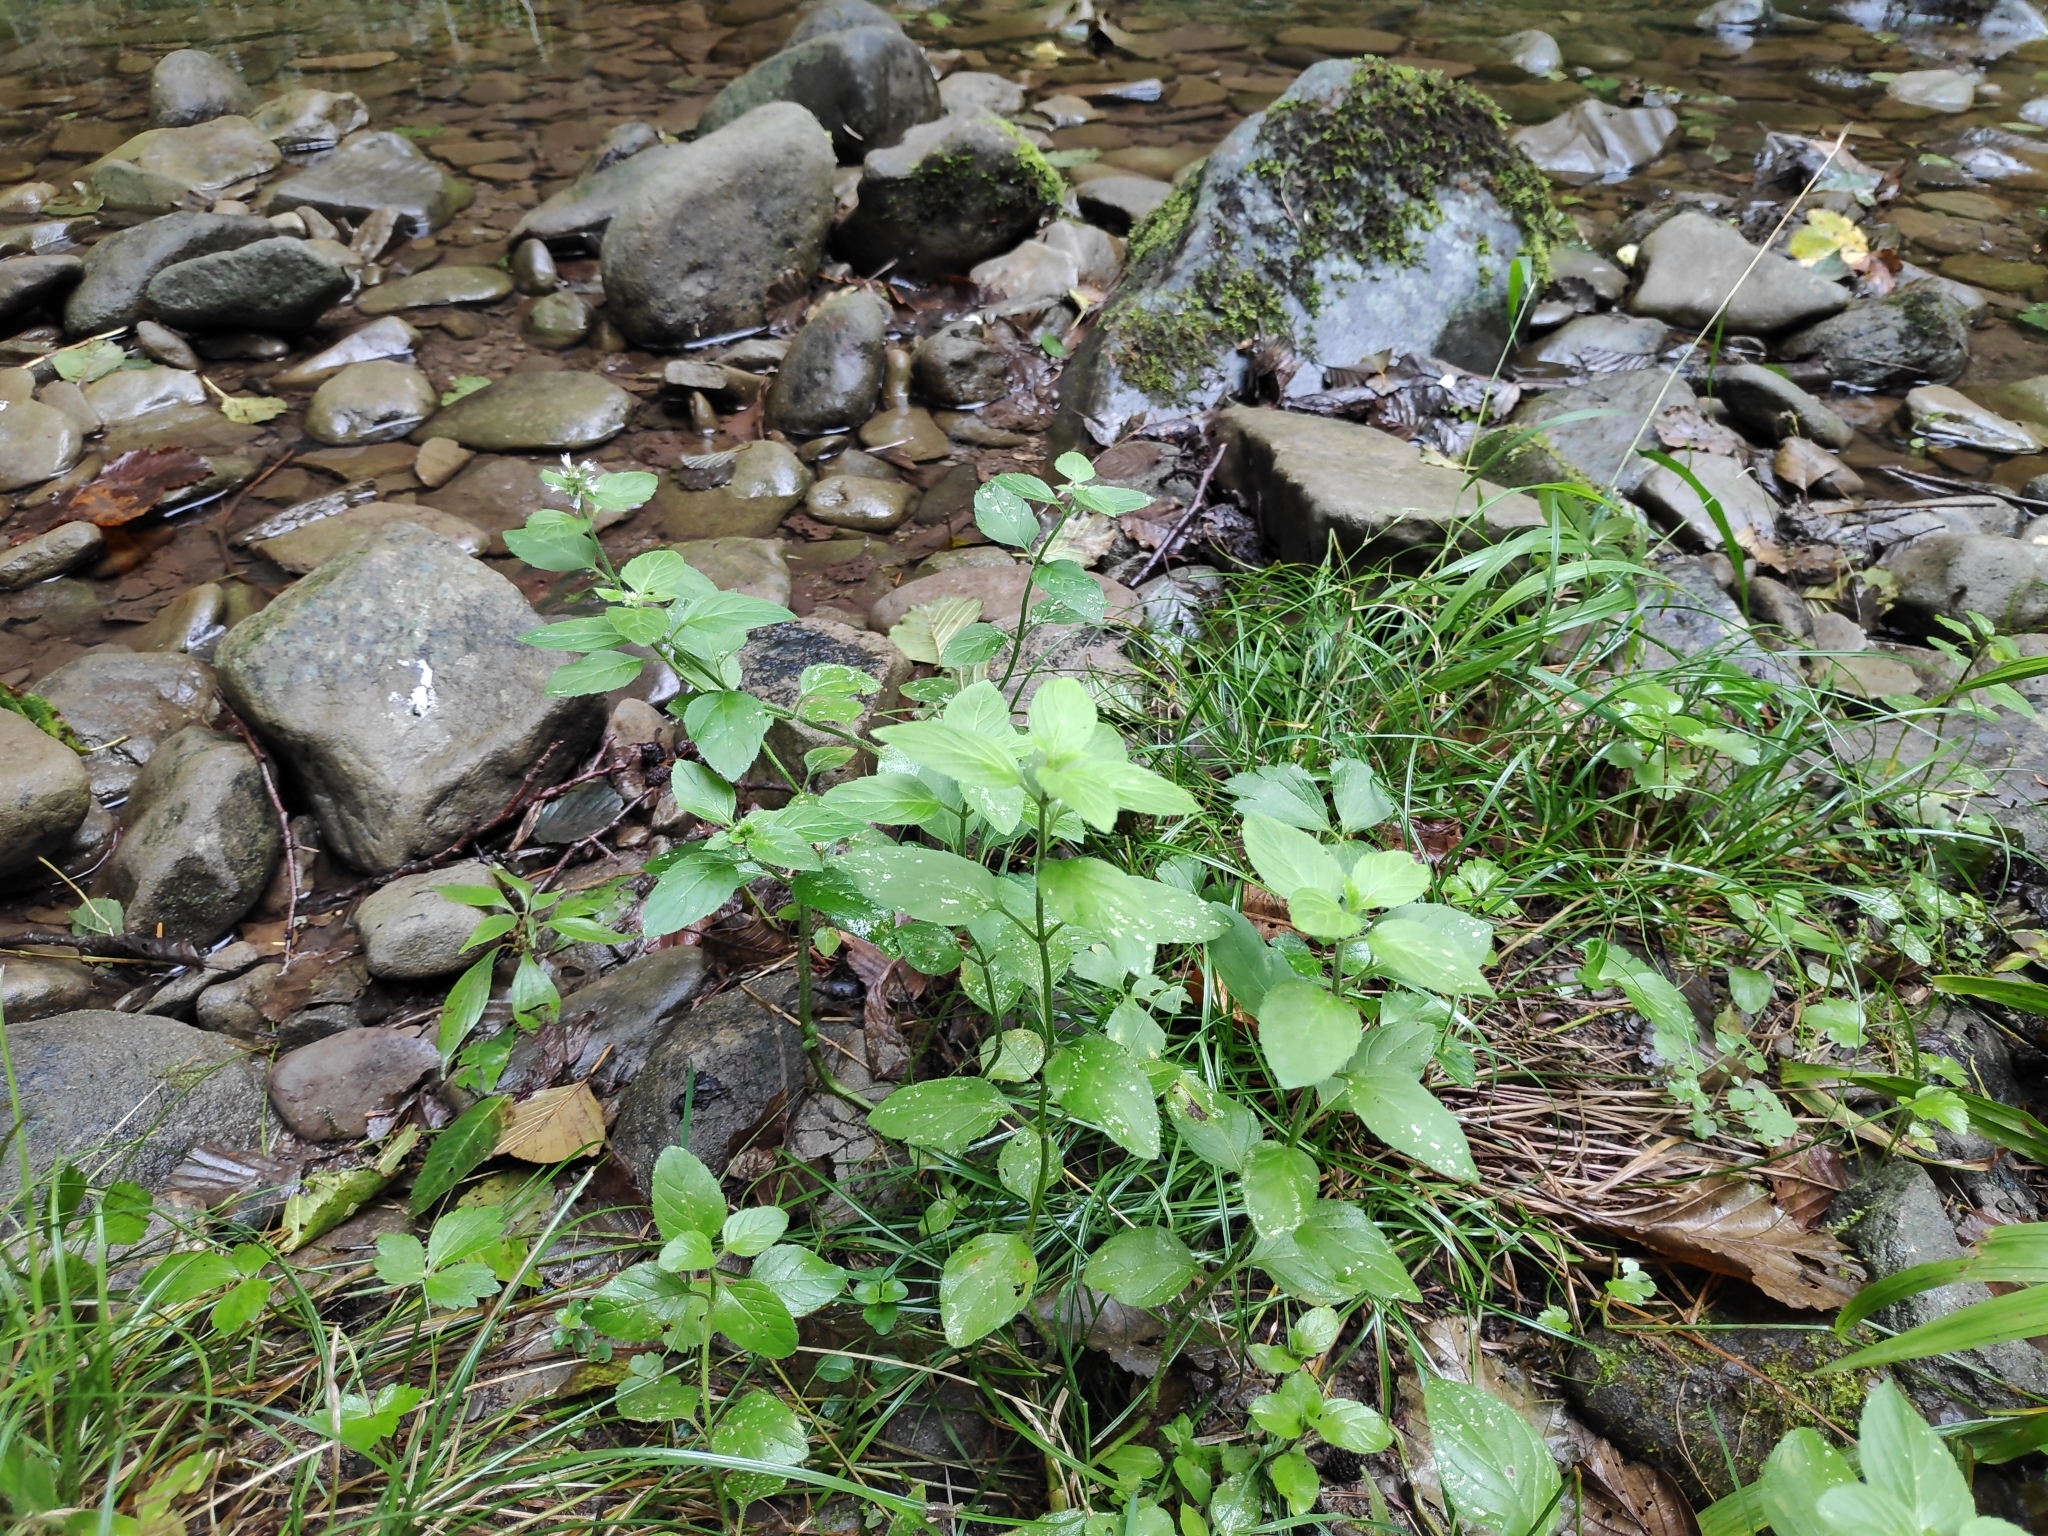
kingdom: Plantae
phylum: Tracheophyta
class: Magnoliopsida
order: Lamiales
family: Lamiaceae
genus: Mentha
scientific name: Mentha aquatica
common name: Water mint
